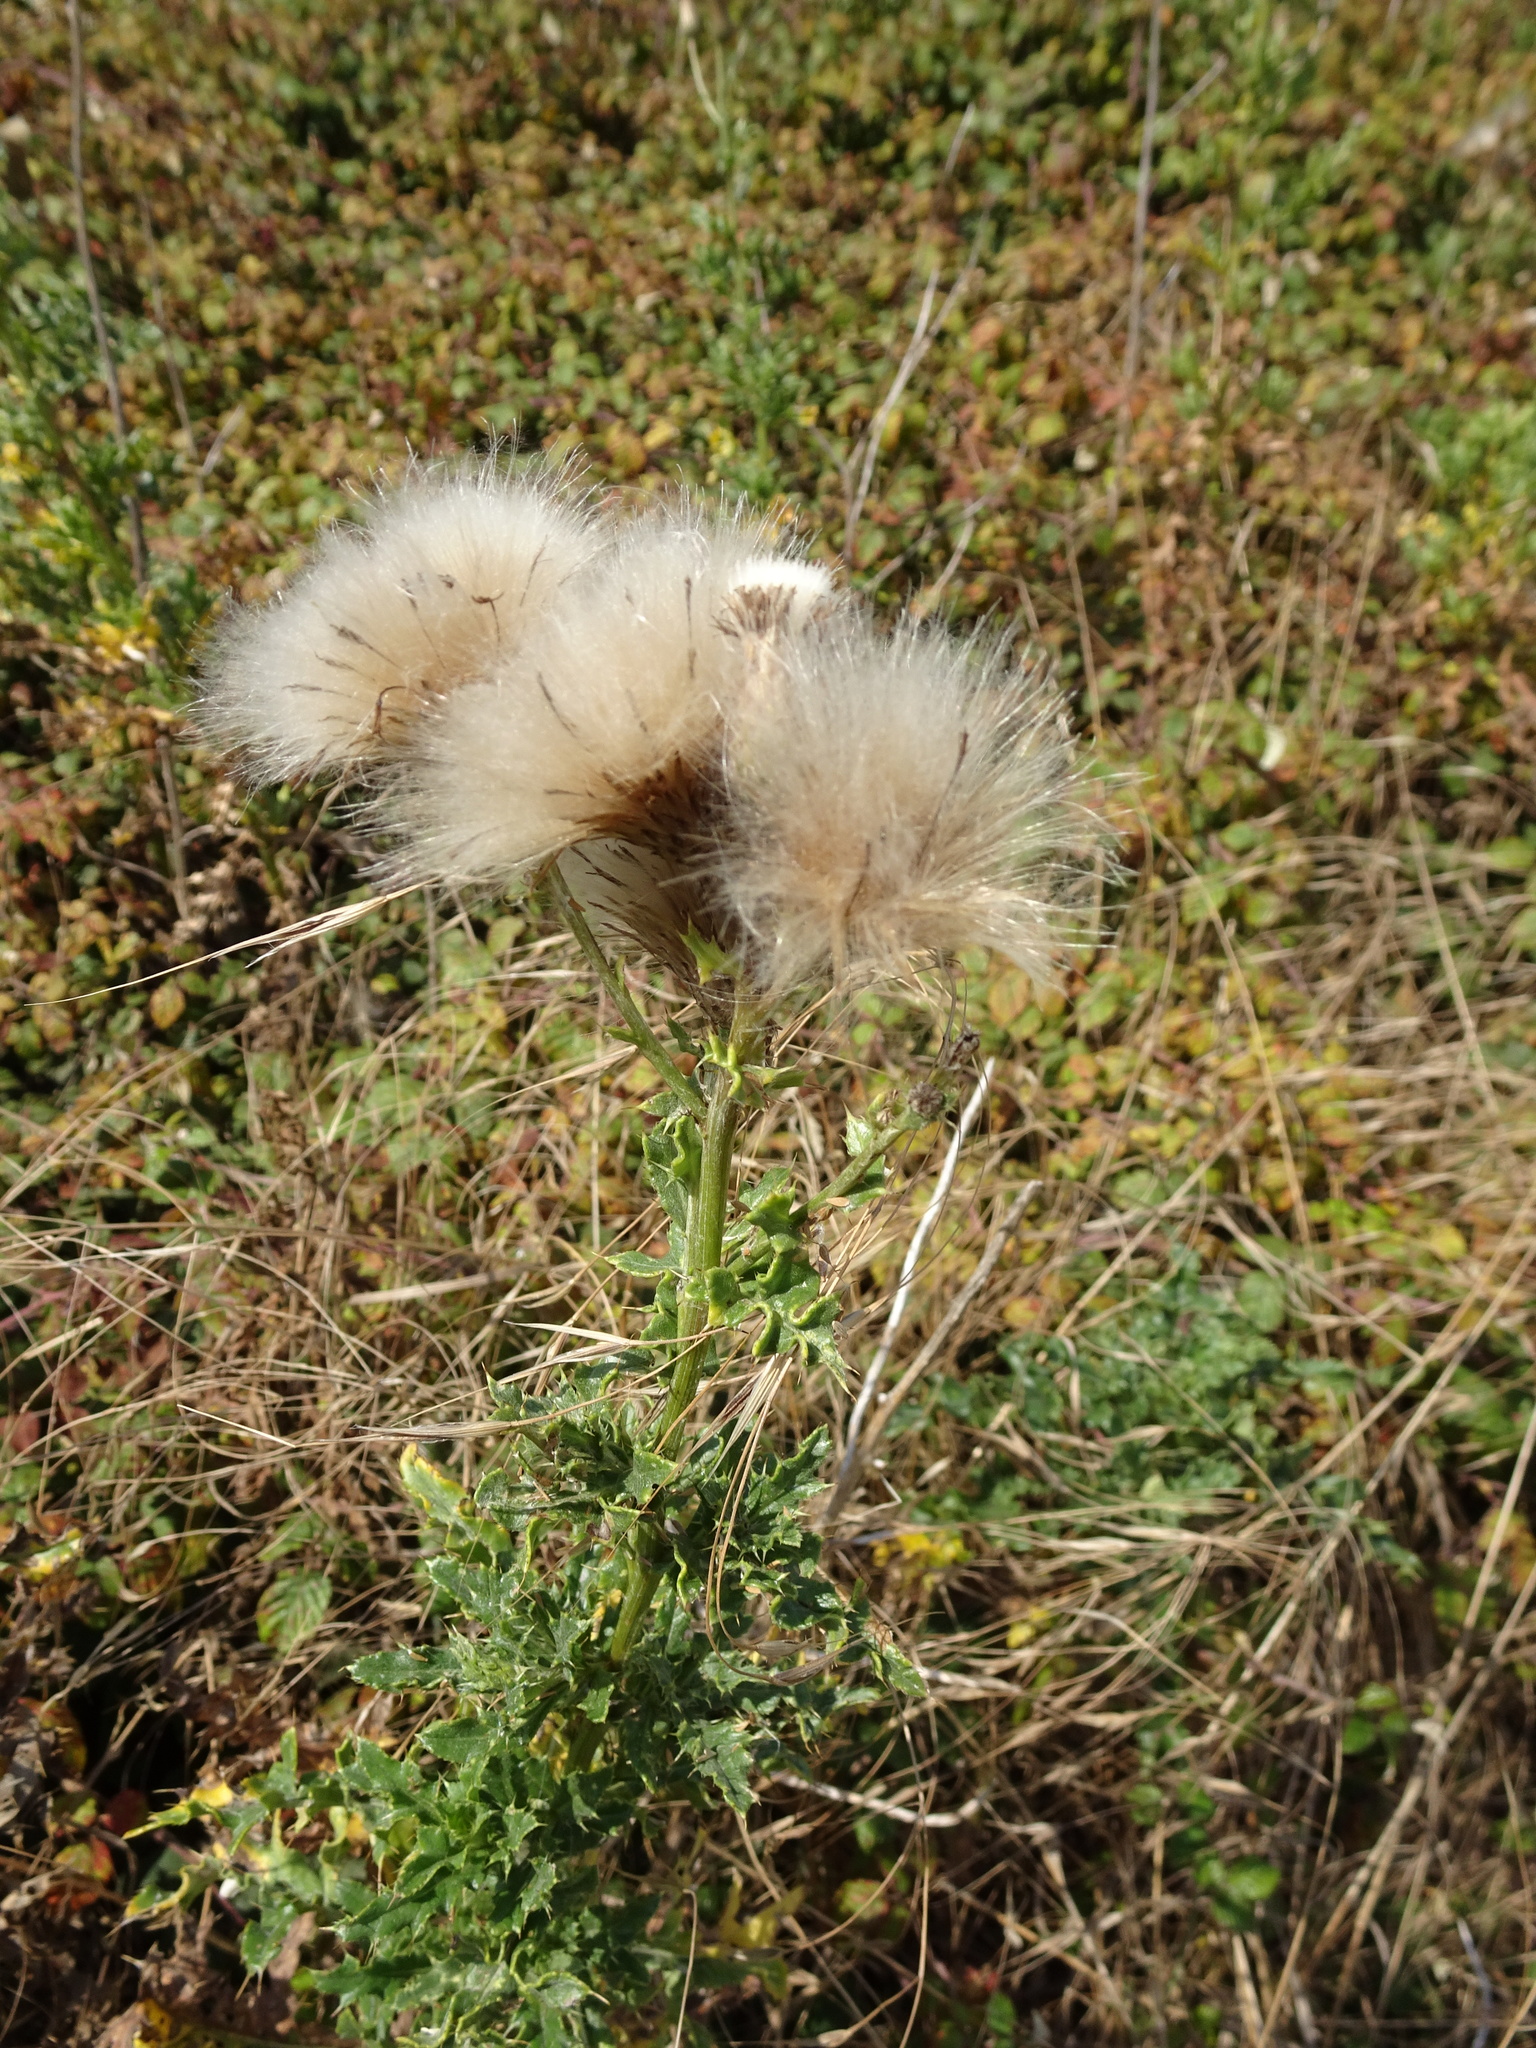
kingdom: Plantae
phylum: Tracheophyta
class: Magnoliopsida
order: Asterales
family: Asteraceae
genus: Cirsium
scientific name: Cirsium arvense
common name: Creeping thistle
